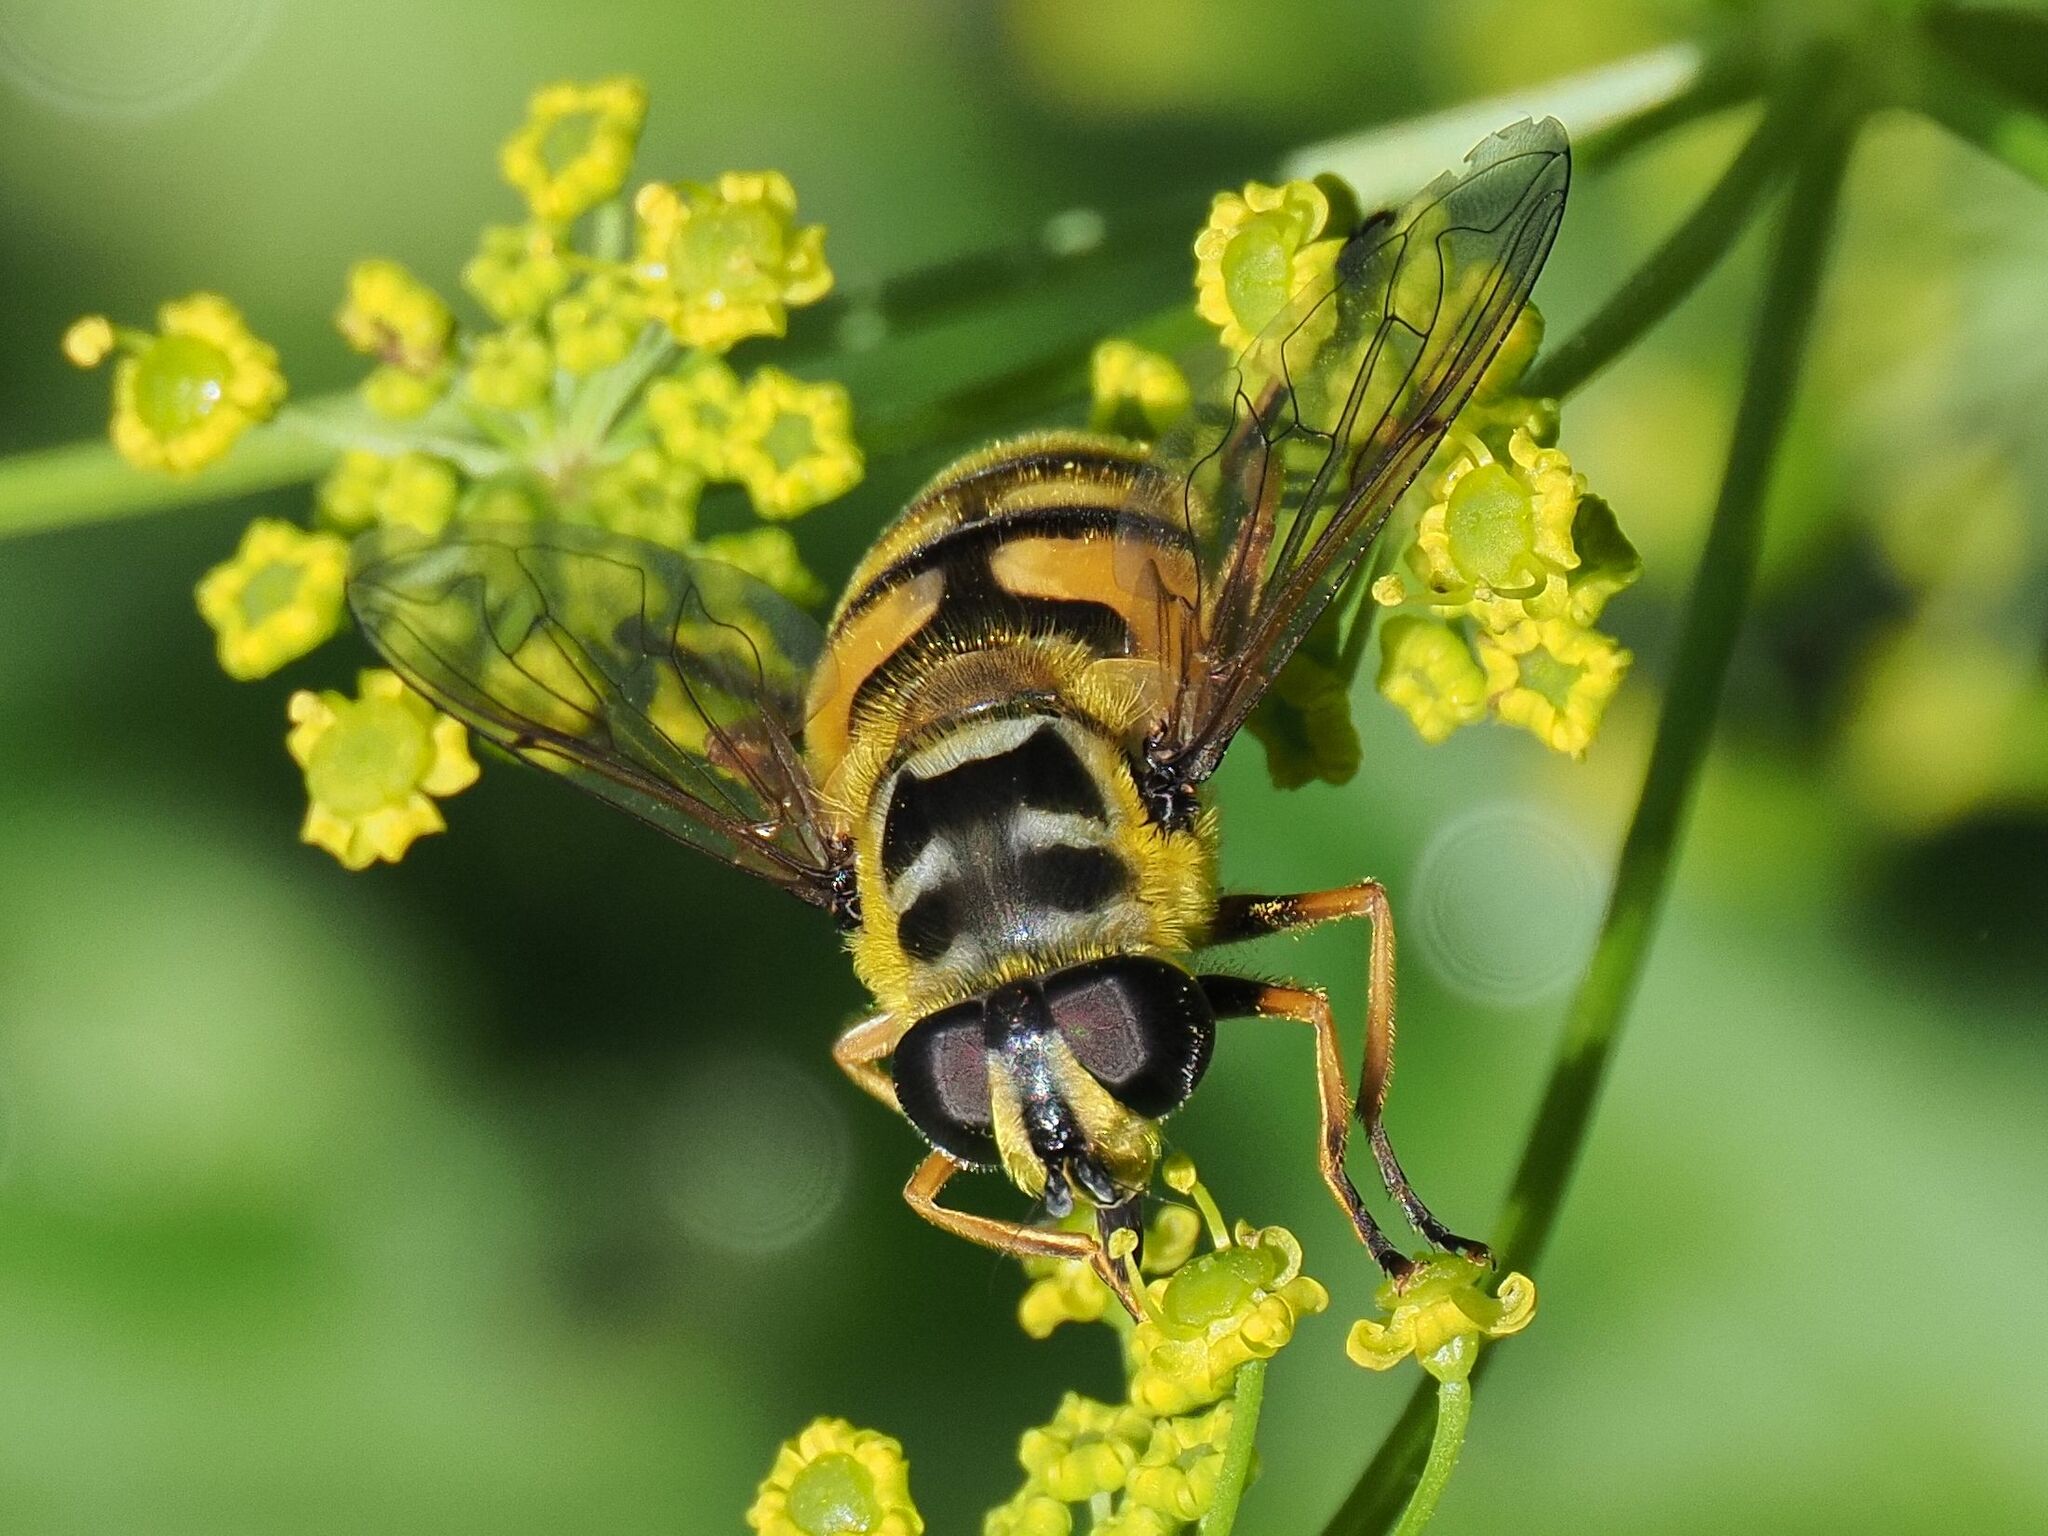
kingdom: Animalia
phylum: Arthropoda
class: Insecta
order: Diptera
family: Syrphidae
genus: Myathropa
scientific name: Myathropa florea
